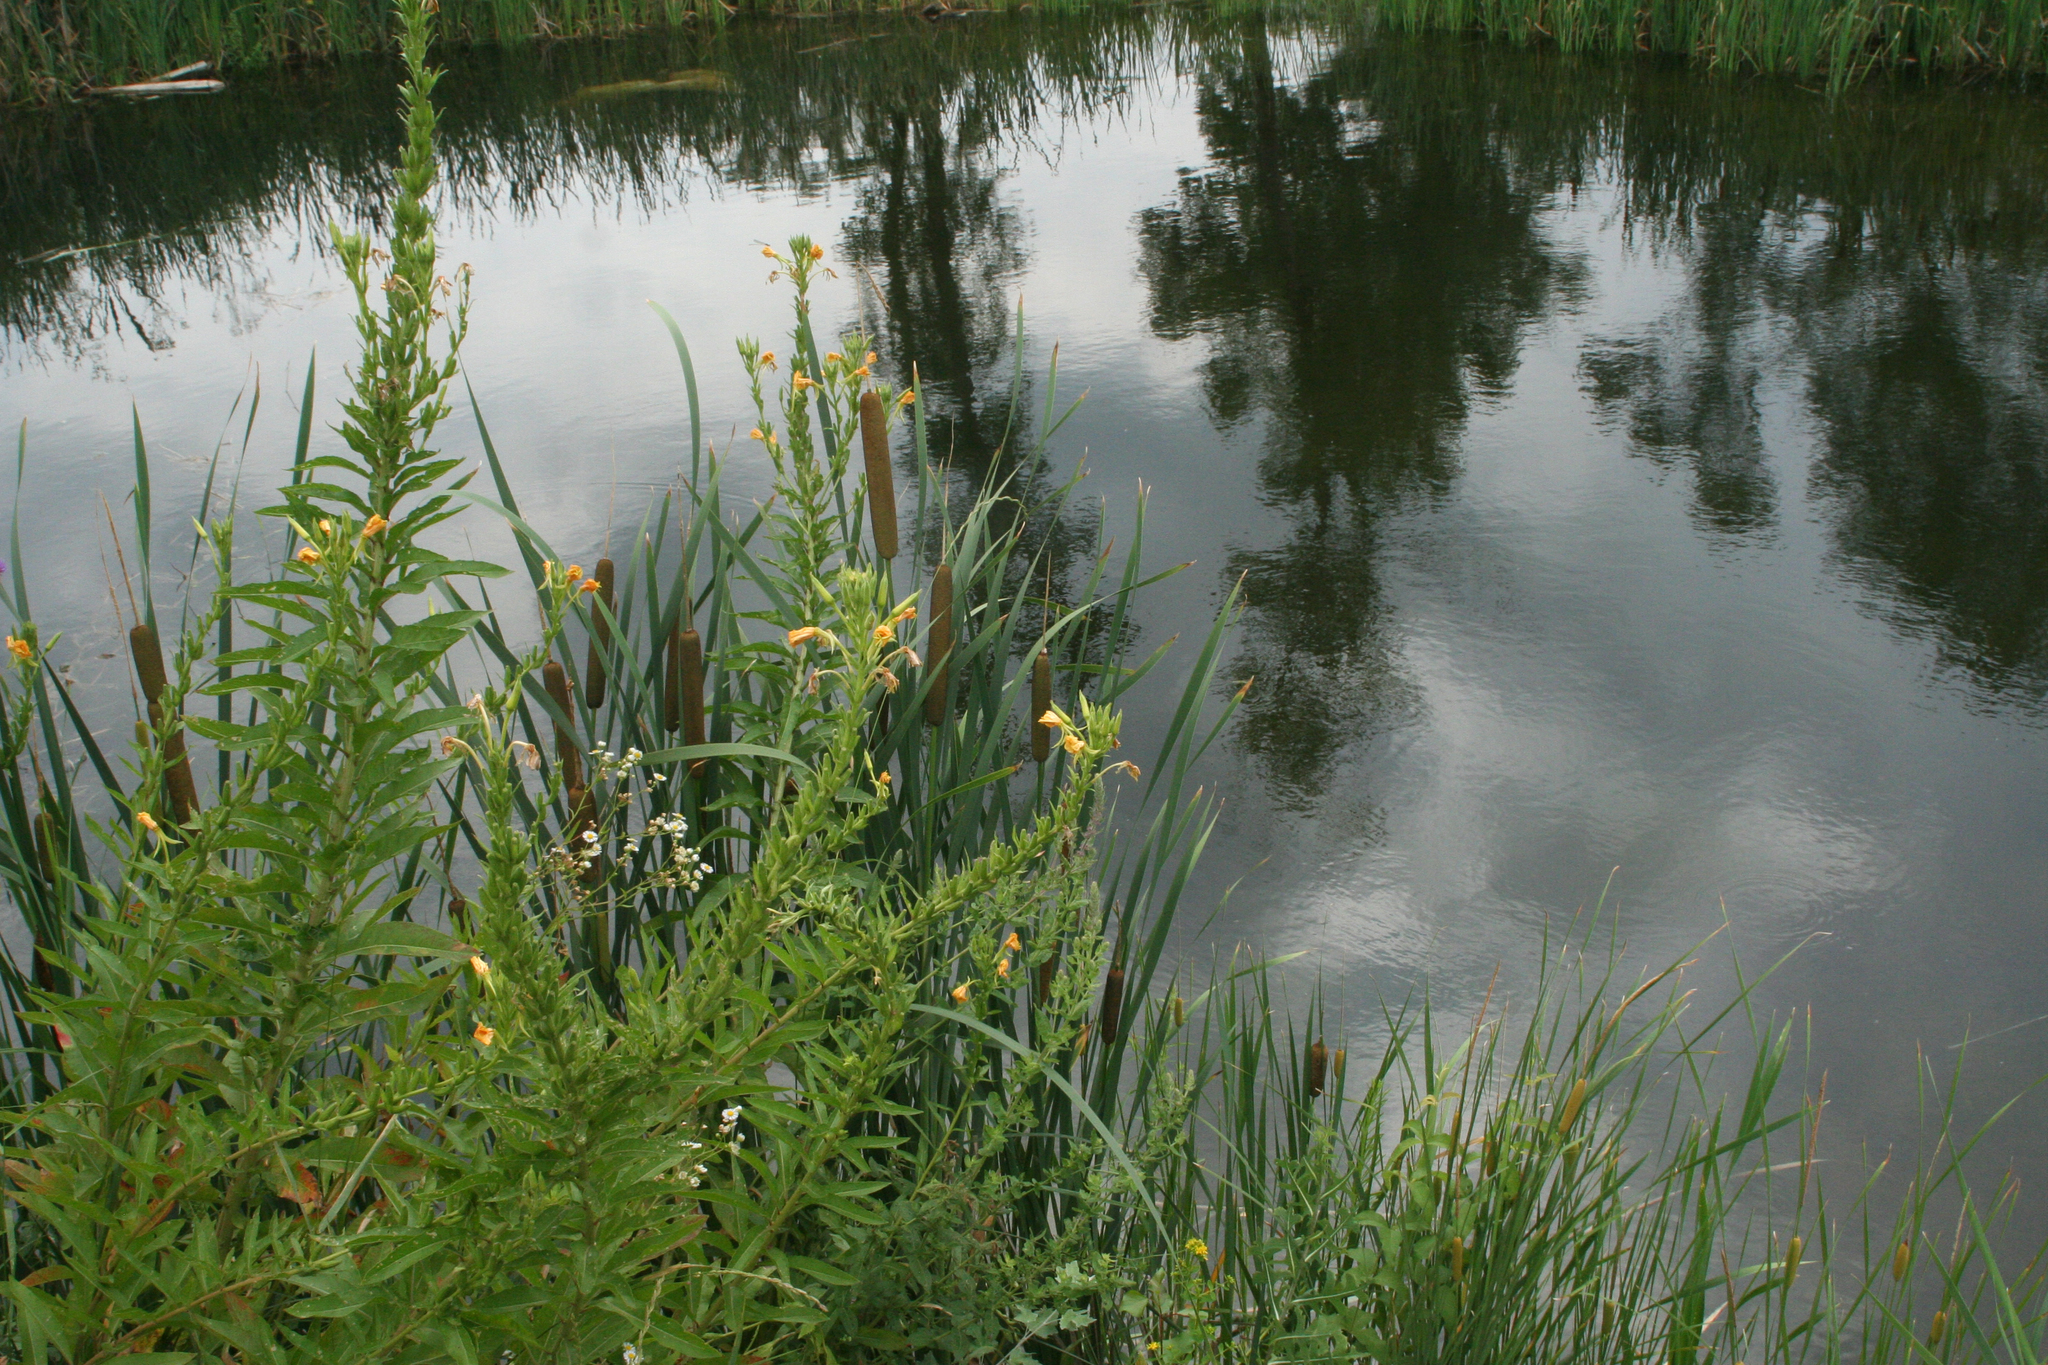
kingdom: Plantae
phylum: Tracheophyta
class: Magnoliopsida
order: Myrtales
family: Onagraceae
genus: Oenothera
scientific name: Oenothera biennis
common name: Common evening-primrose
